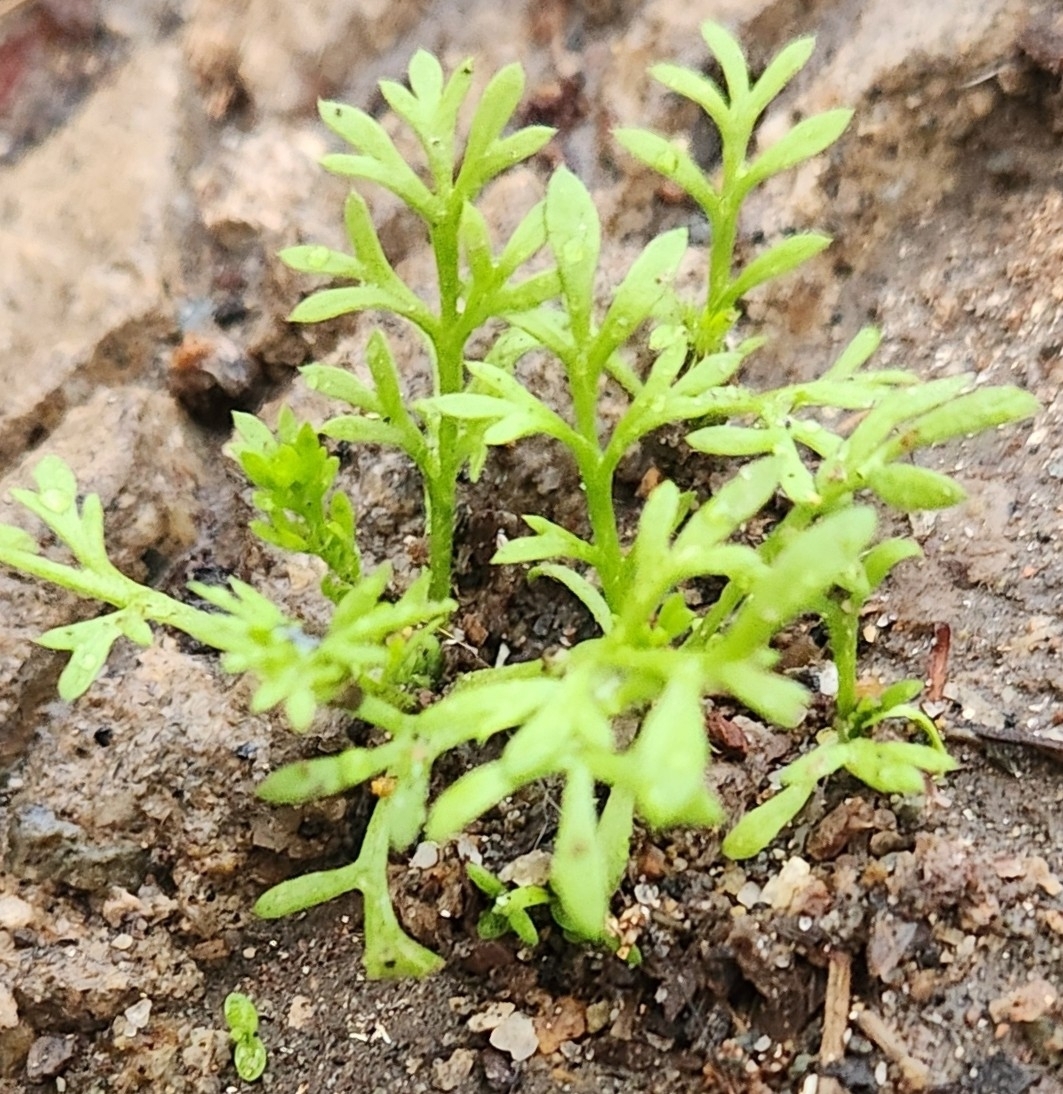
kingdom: Plantae
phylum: Tracheophyta
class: Magnoliopsida
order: Asterales
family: Asteraceae
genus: Cotula
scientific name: Cotula australis
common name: Australian waterbuttons
